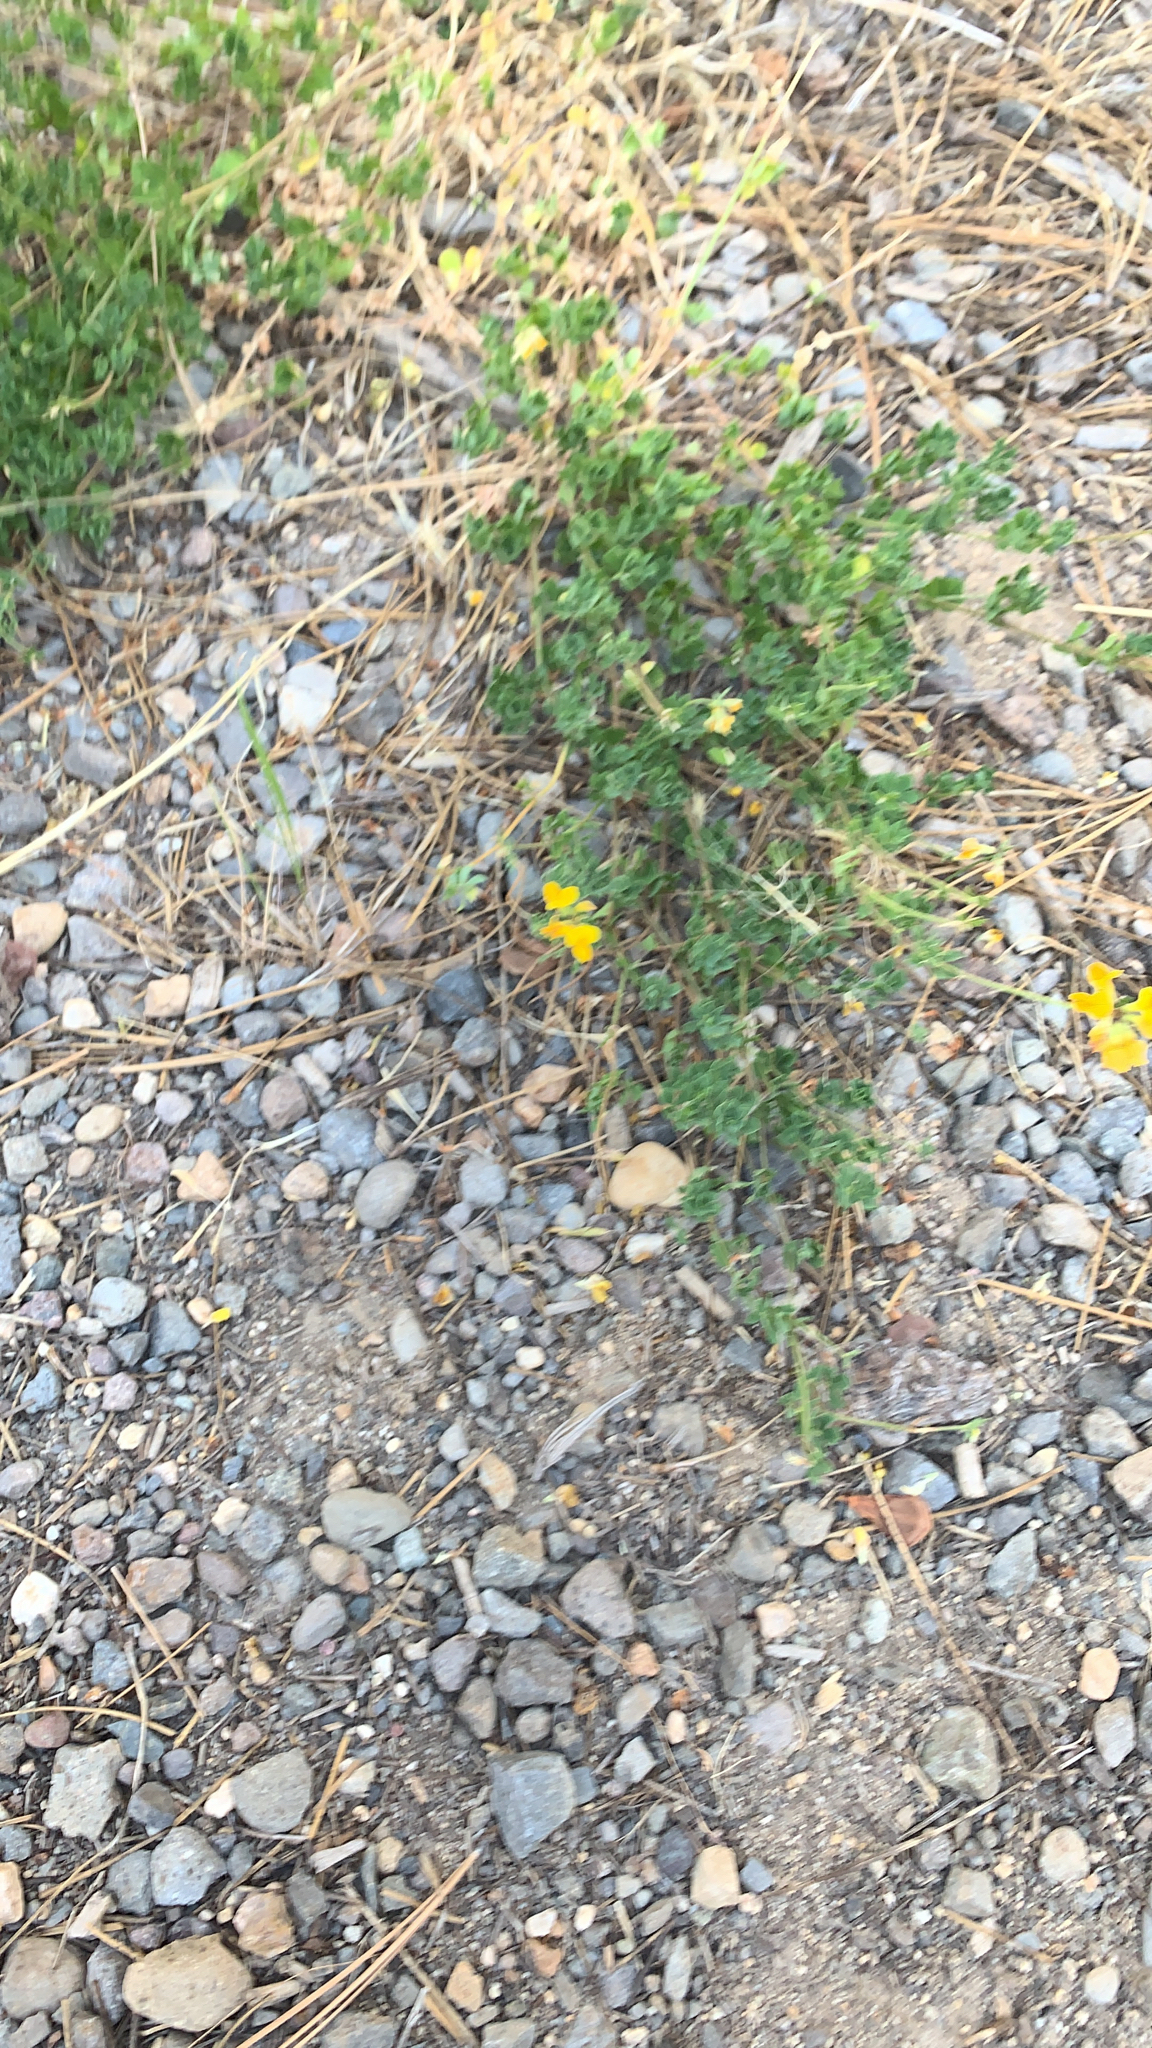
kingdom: Plantae
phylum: Tracheophyta
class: Magnoliopsida
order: Fabales
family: Fabaceae
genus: Lotus
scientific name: Lotus corniculatus
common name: Common bird's-foot-trefoil
